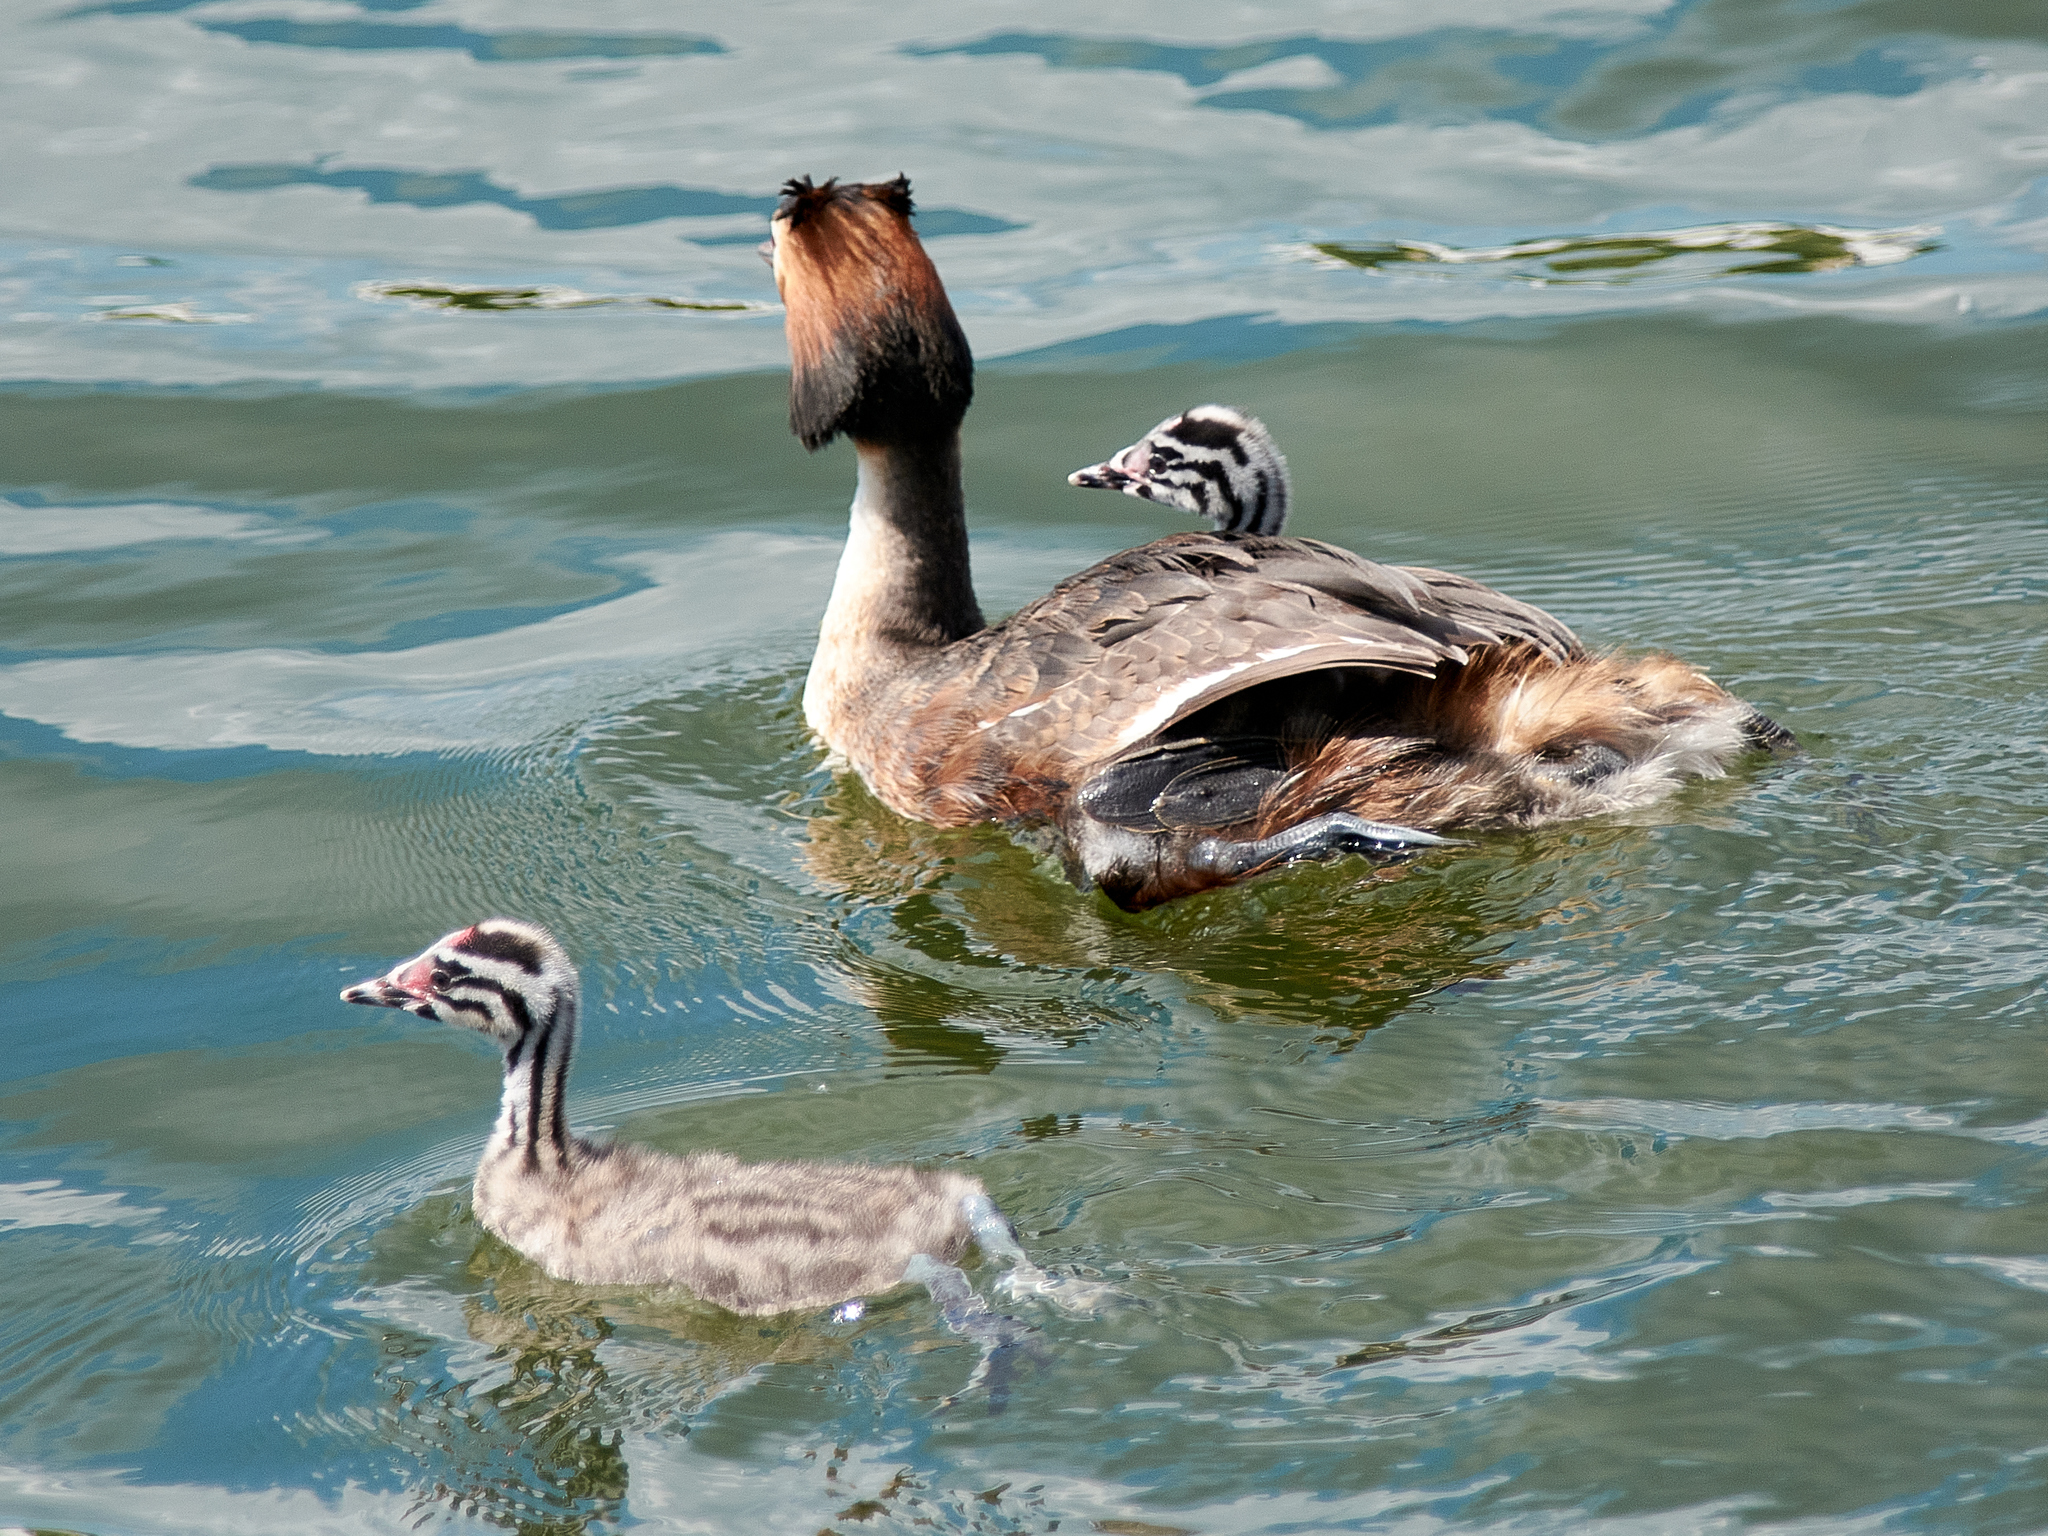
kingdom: Animalia
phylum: Chordata
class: Aves
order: Podicipediformes
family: Podicipedidae
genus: Podiceps
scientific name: Podiceps cristatus
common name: Great crested grebe
